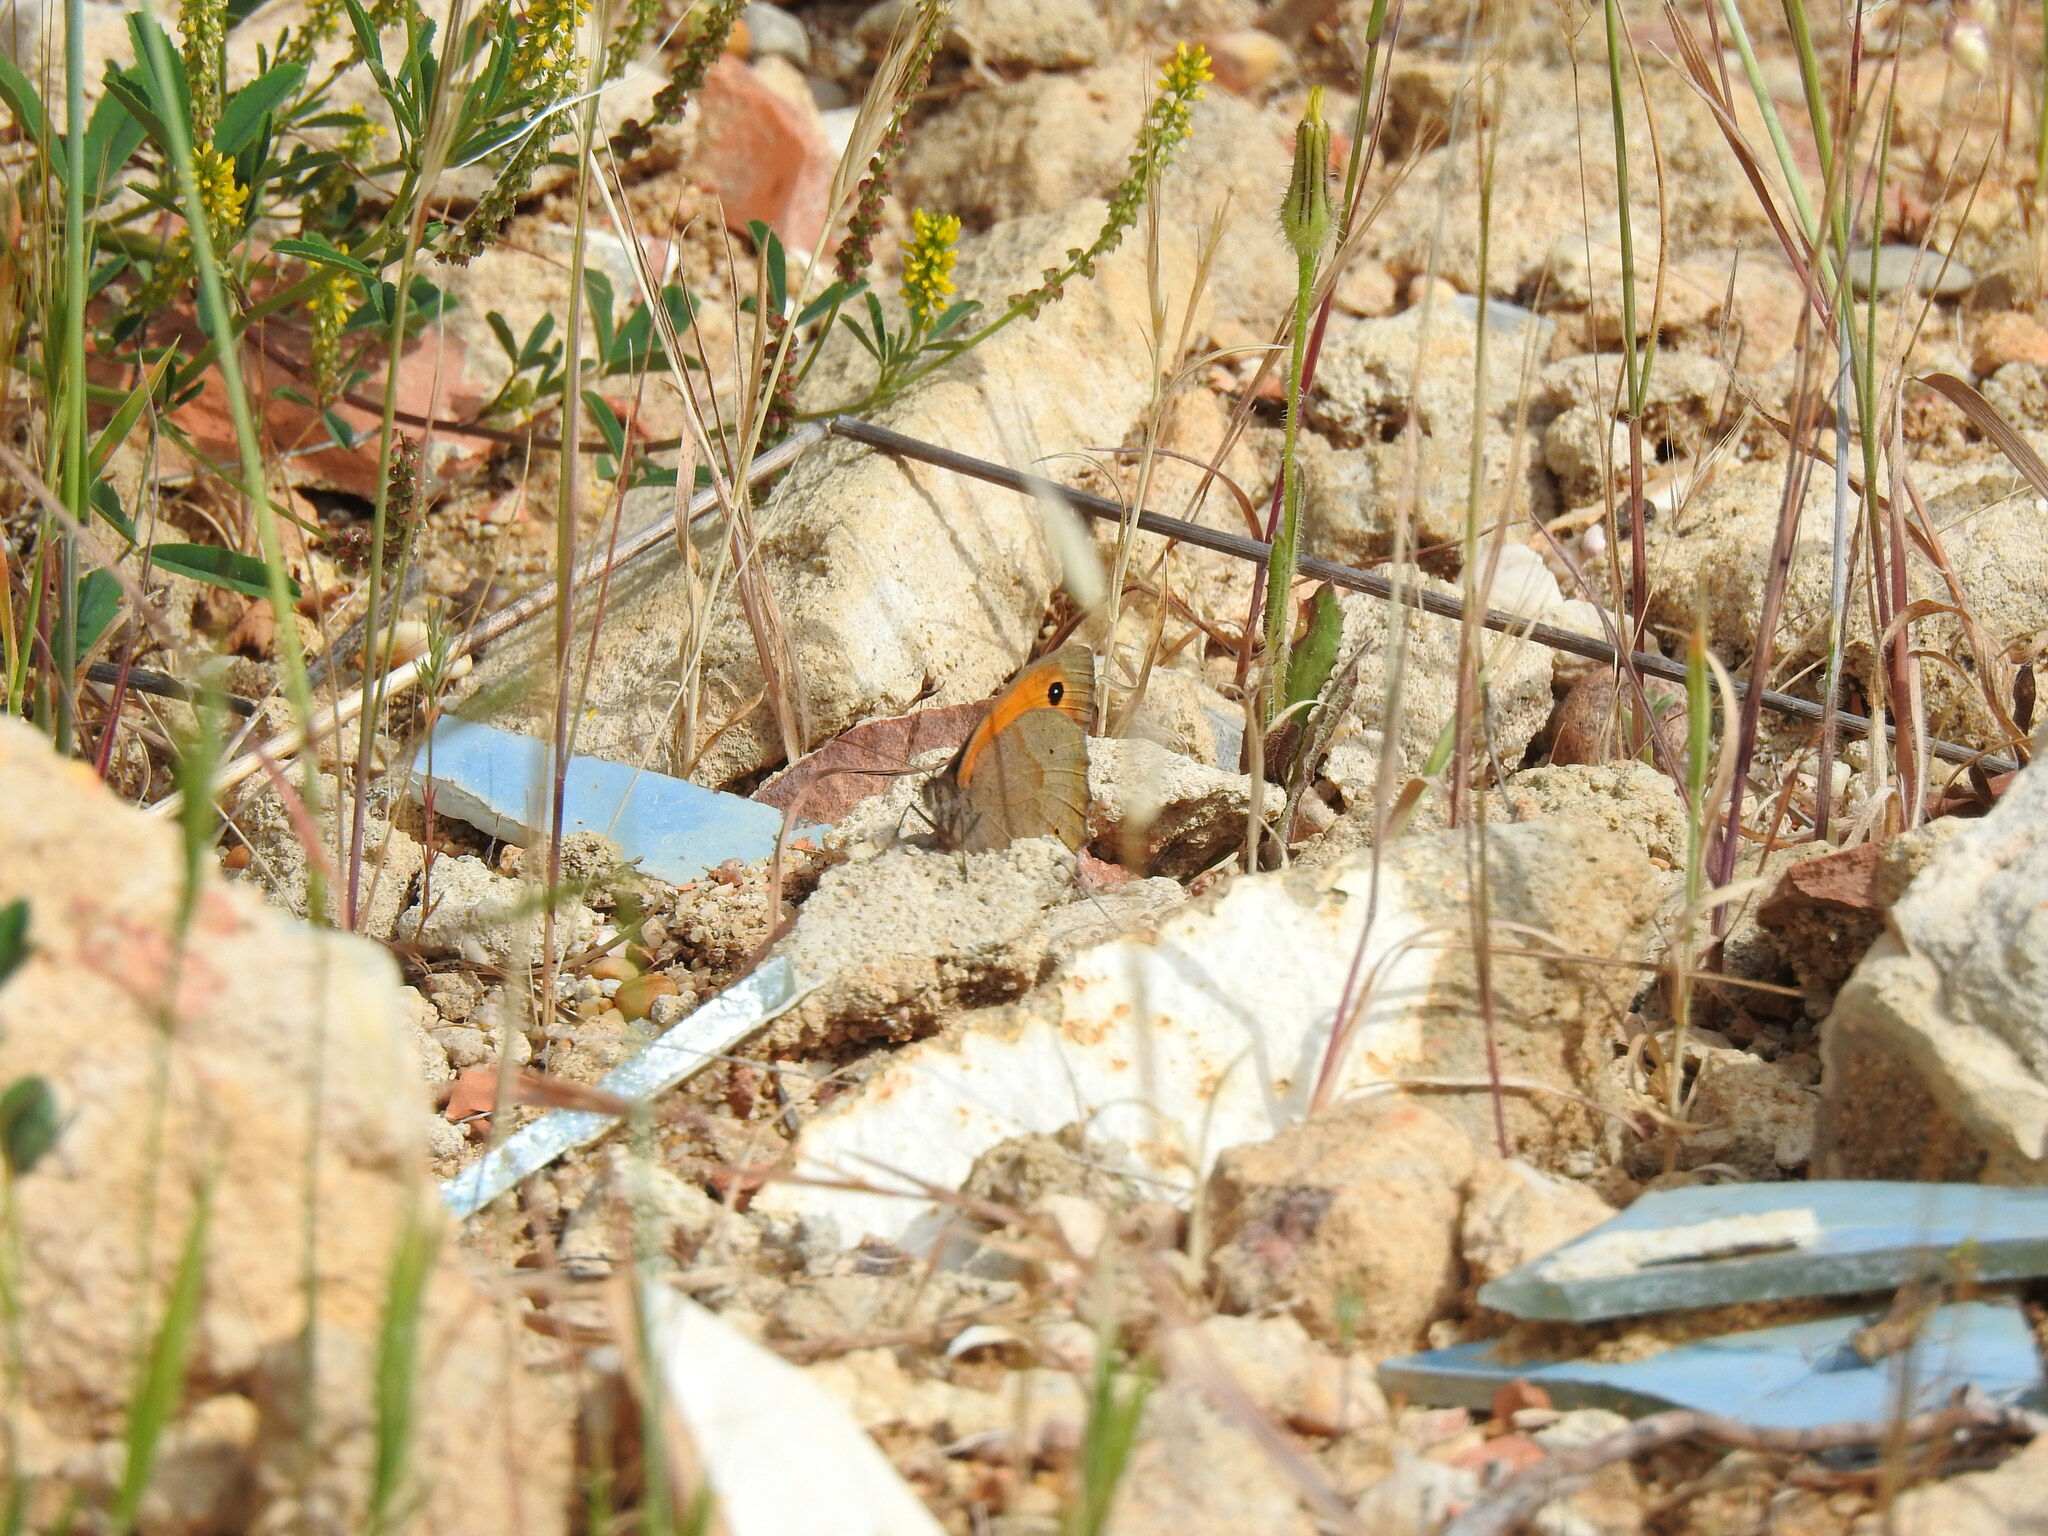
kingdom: Animalia
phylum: Arthropoda
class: Insecta
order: Lepidoptera
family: Nymphalidae
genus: Maniola
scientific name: Maniola jurtina
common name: Meadow brown
